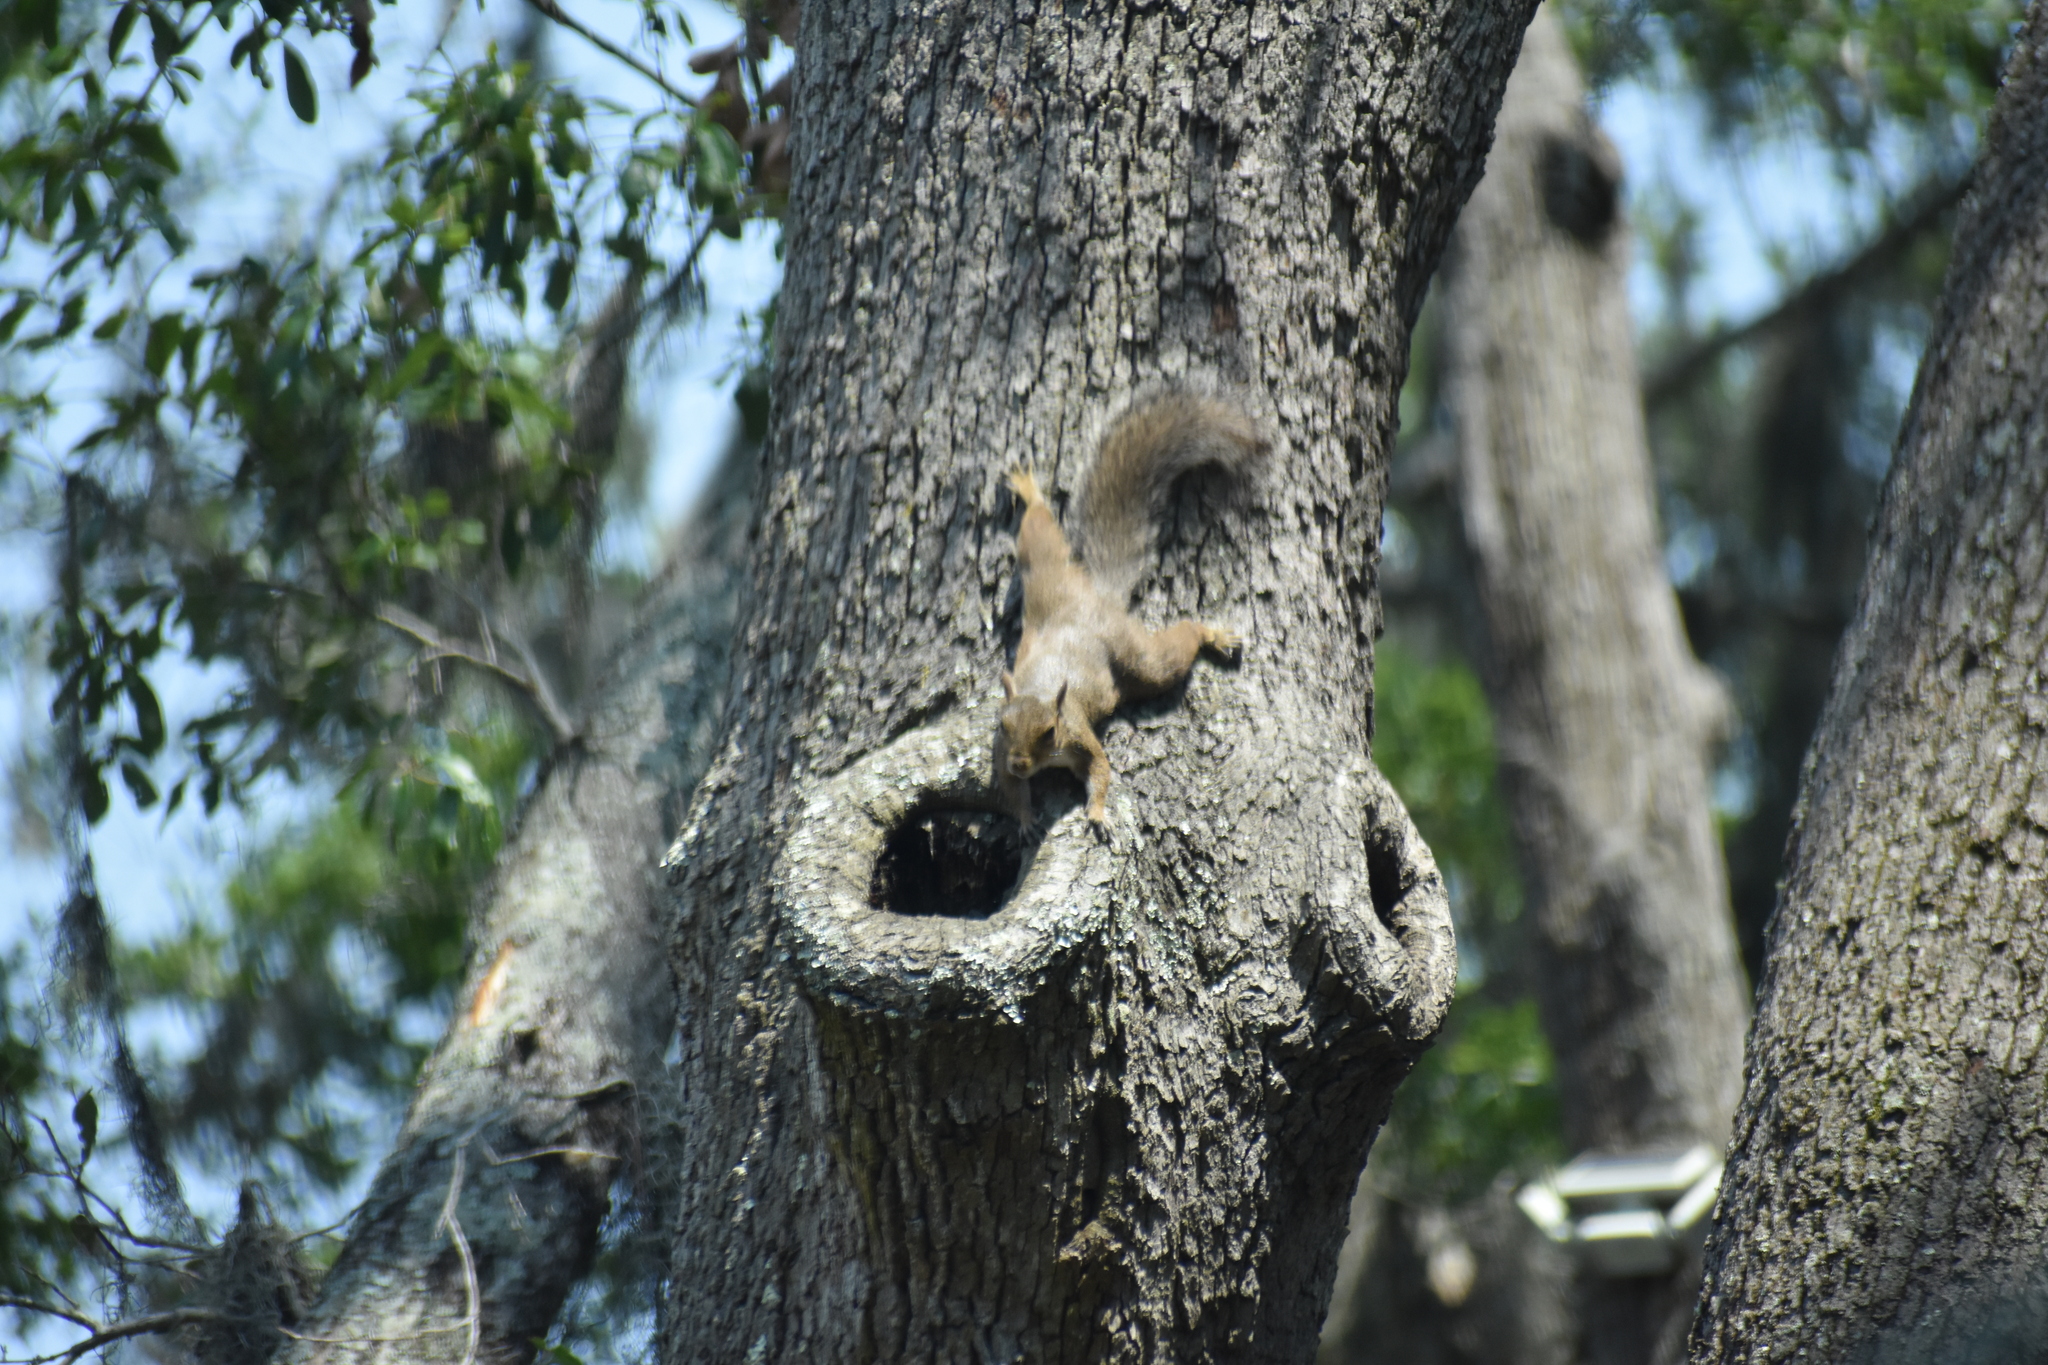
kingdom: Animalia
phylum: Chordata
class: Mammalia
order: Rodentia
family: Sciuridae
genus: Sciurus
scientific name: Sciurus carolinensis
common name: Eastern gray squirrel
